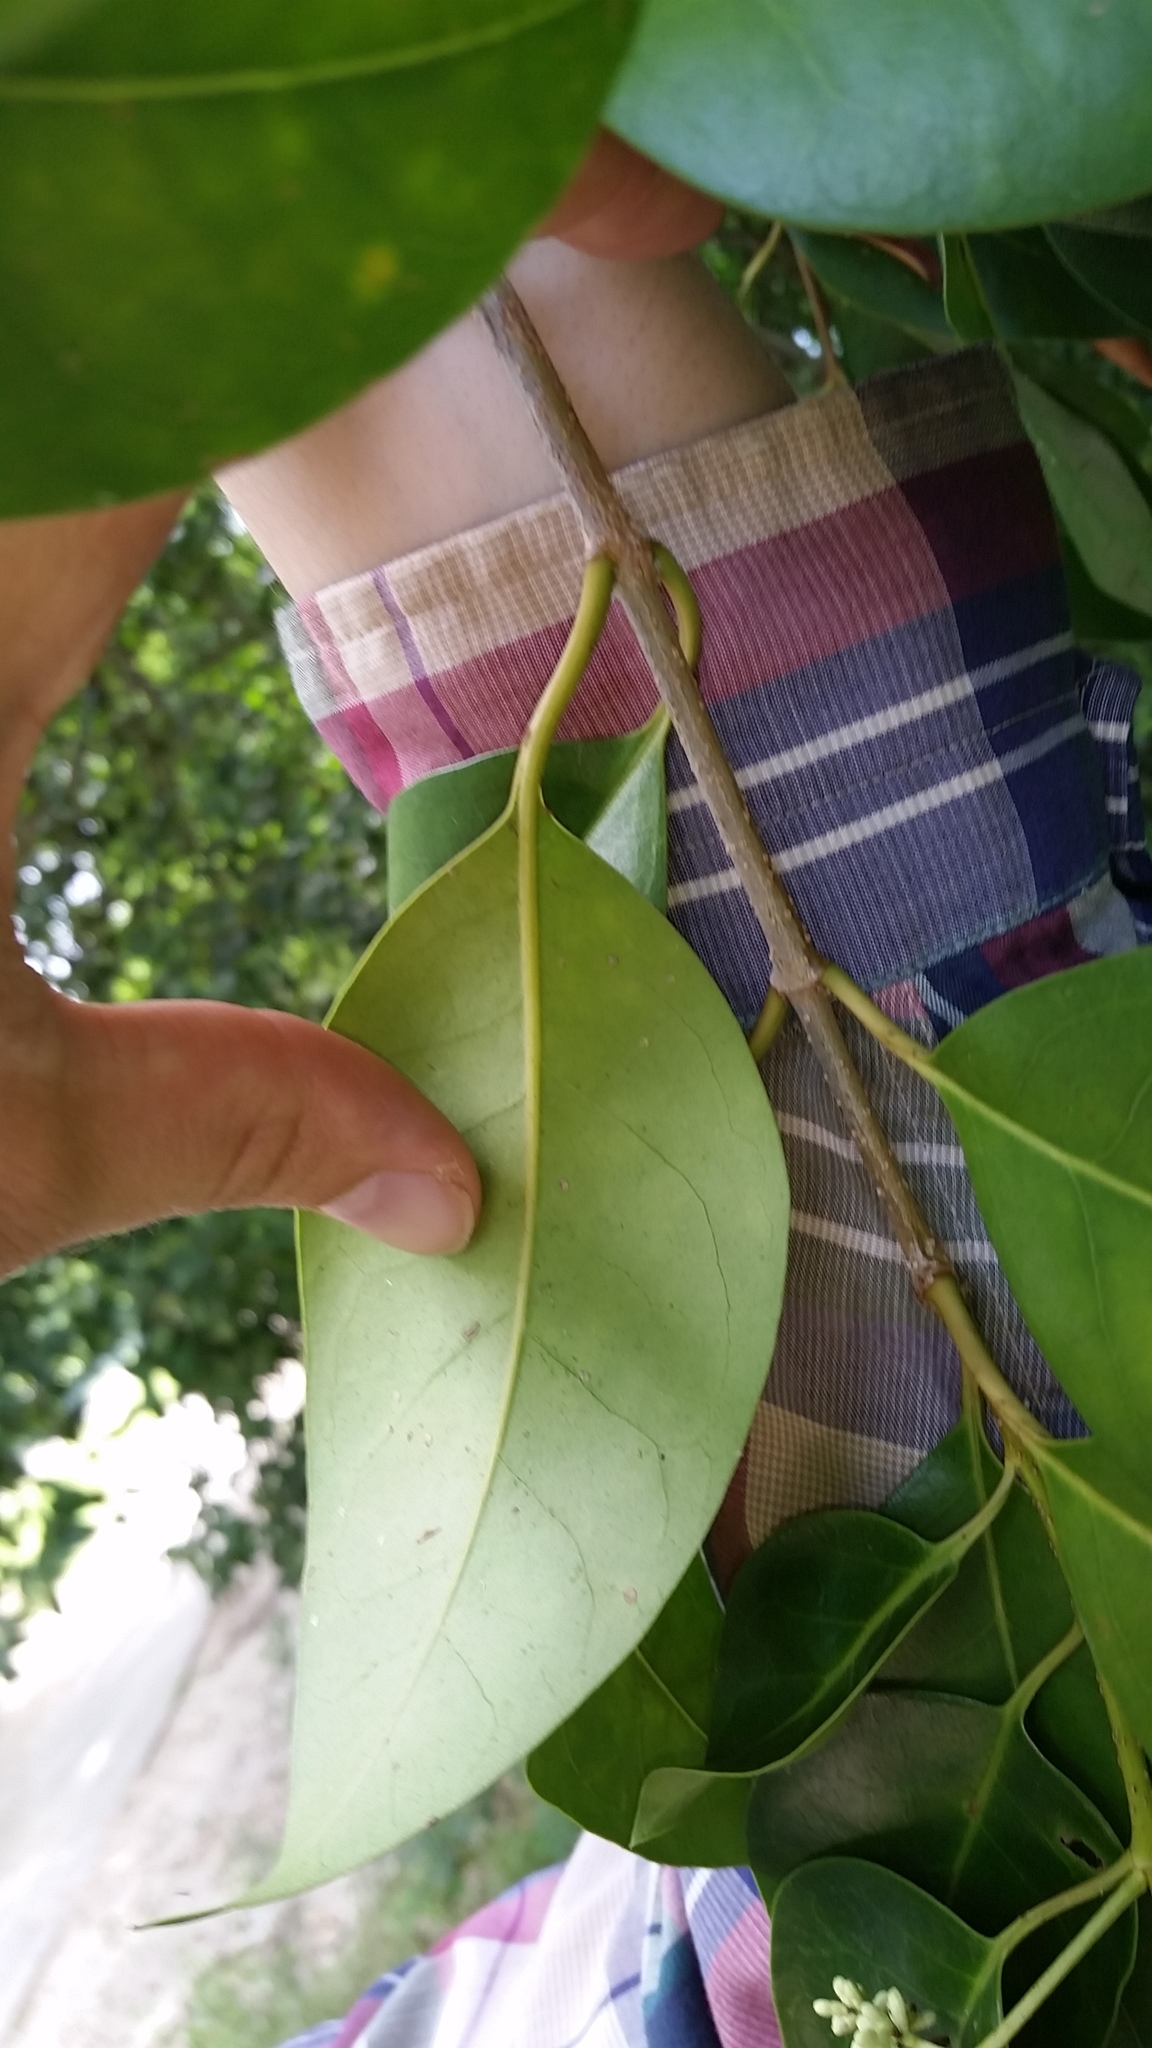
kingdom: Plantae
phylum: Tracheophyta
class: Magnoliopsida
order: Lamiales
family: Oleaceae
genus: Ligustrum
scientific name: Ligustrum lucidum
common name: Glossy privet
